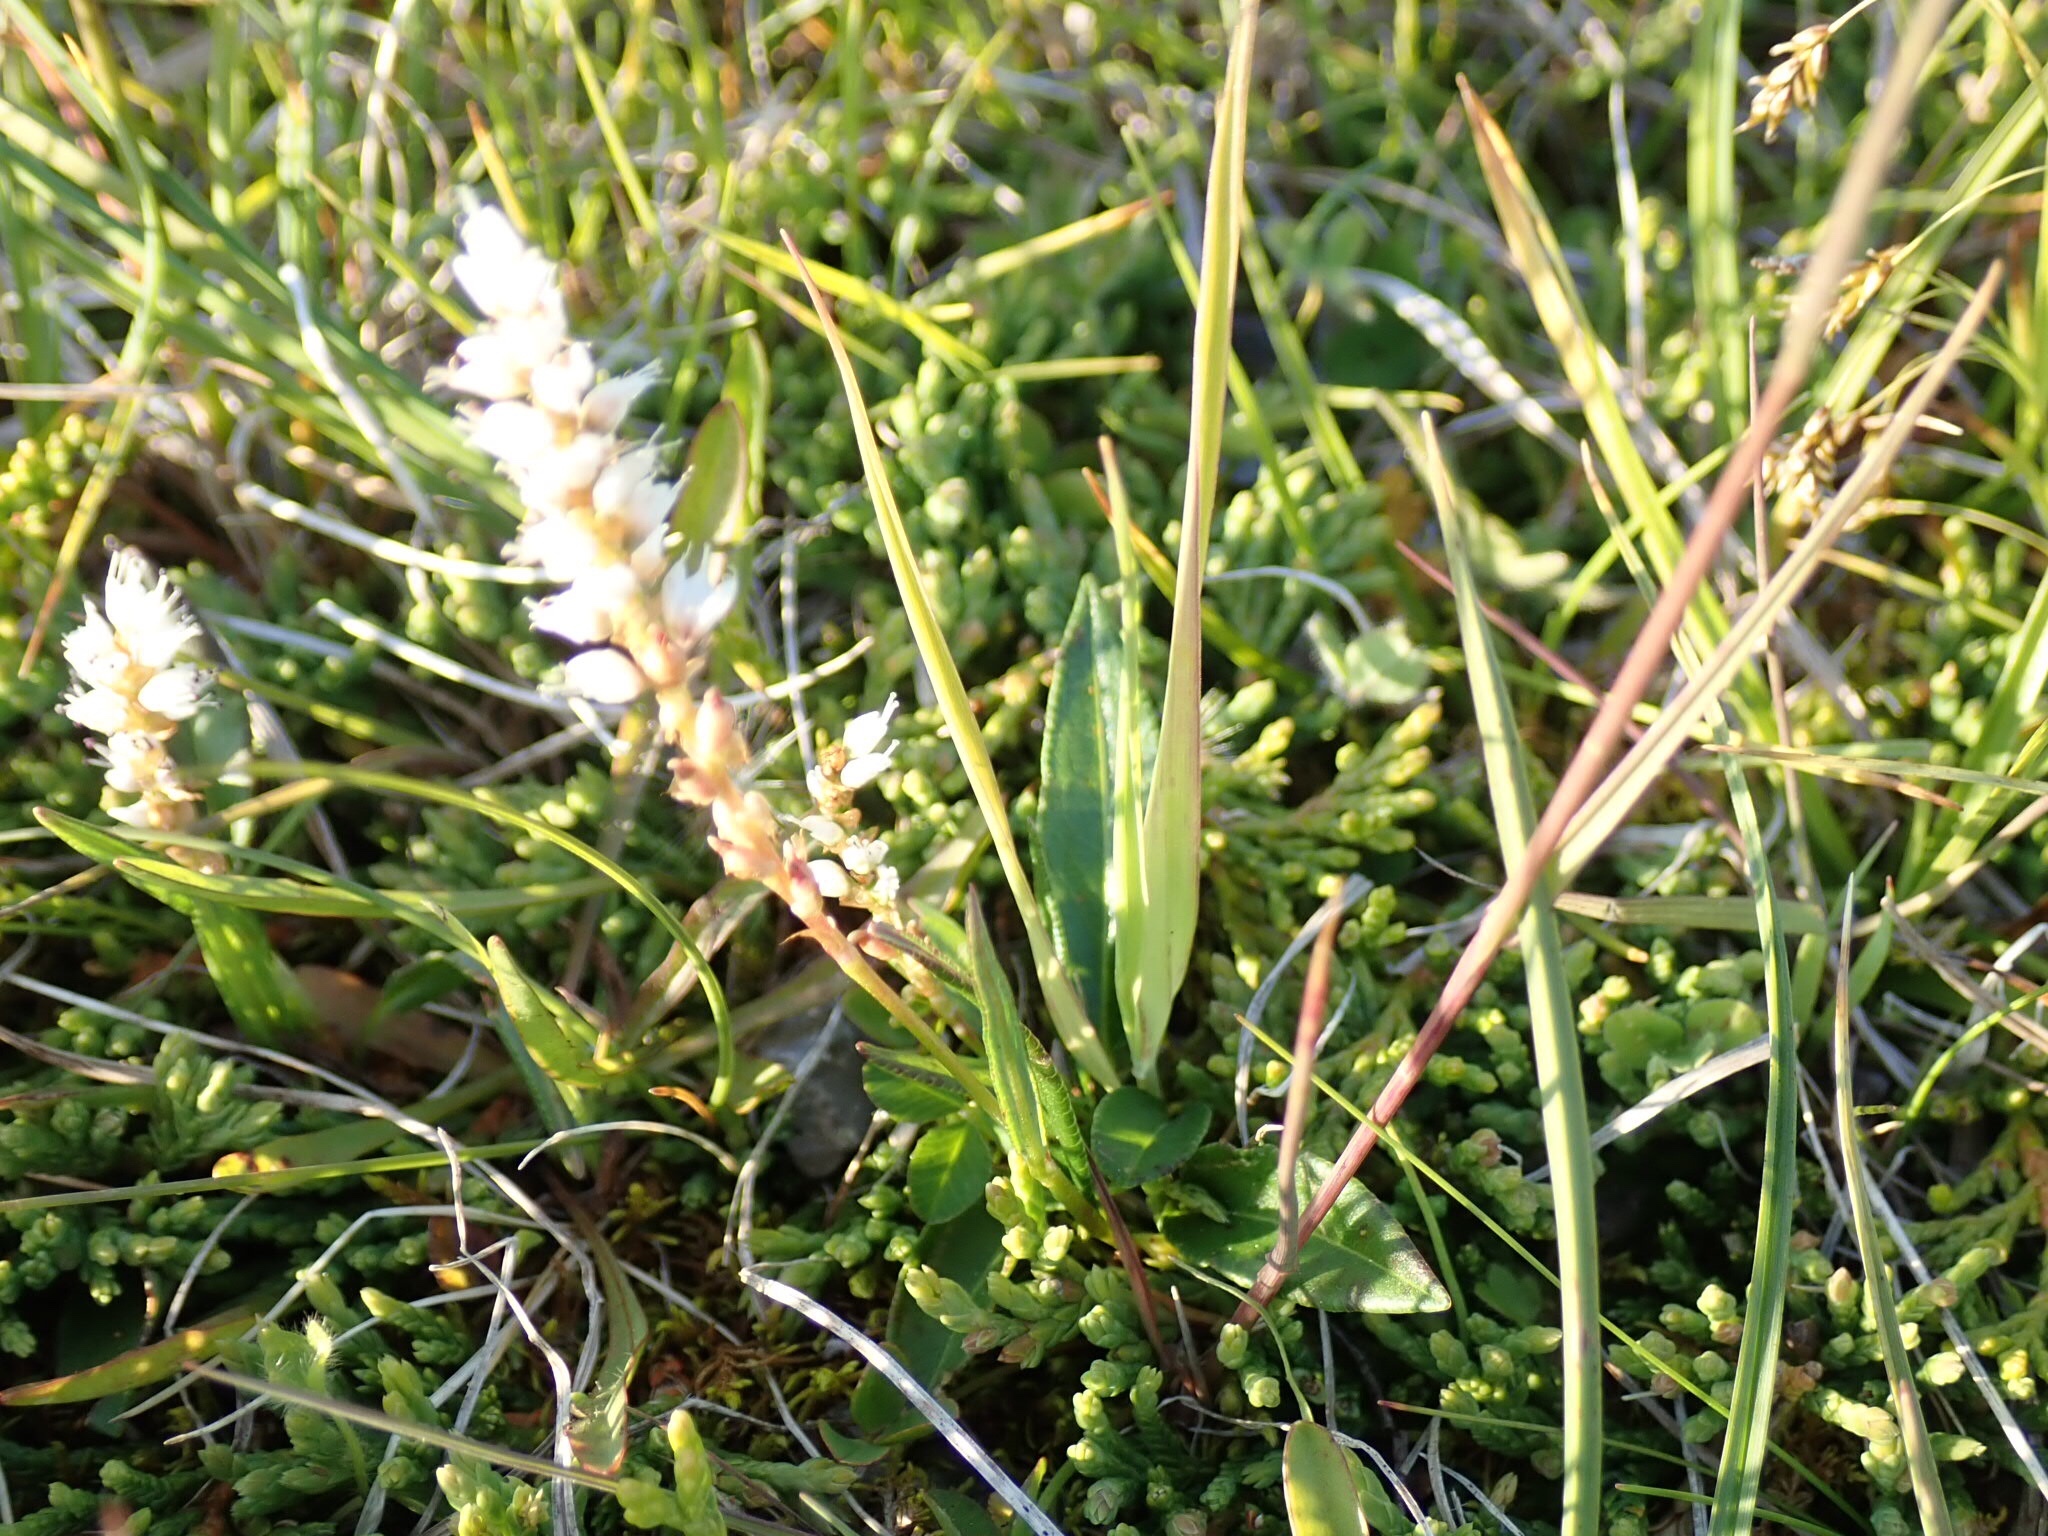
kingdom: Plantae
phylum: Tracheophyta
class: Magnoliopsida
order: Caryophyllales
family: Polygonaceae
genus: Bistorta
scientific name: Bistorta vivipara
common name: Alpine bistort
